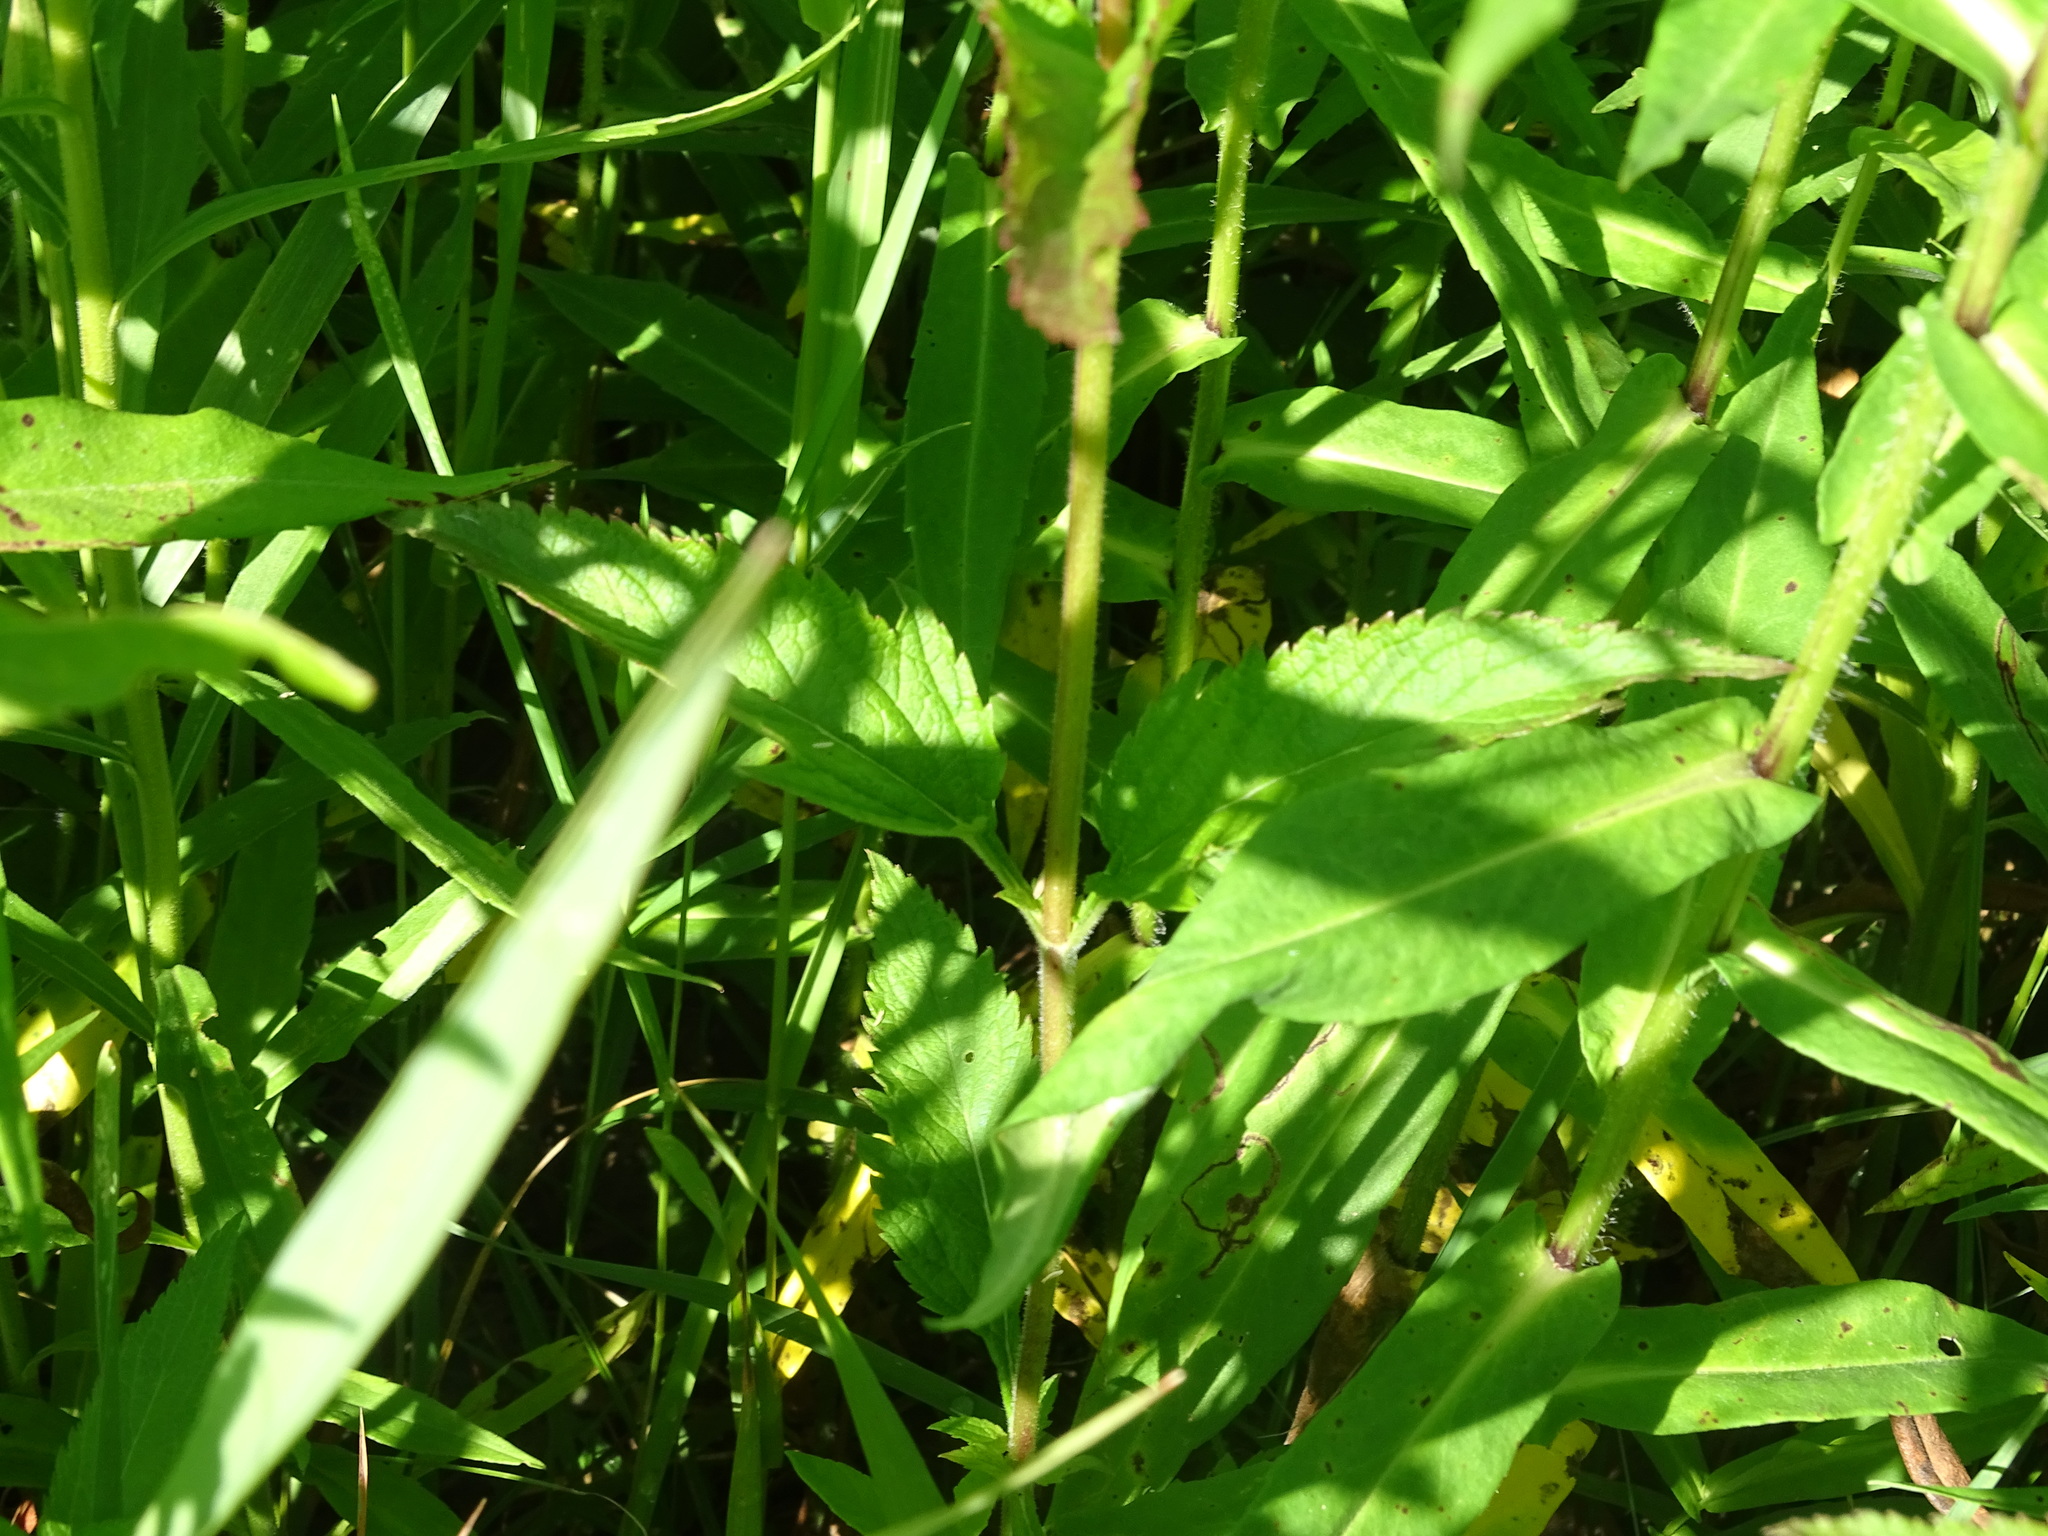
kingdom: Plantae
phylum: Tracheophyta
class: Magnoliopsida
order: Lamiales
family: Verbenaceae
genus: Verbena
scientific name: Verbena hastata
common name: American blue vervain
